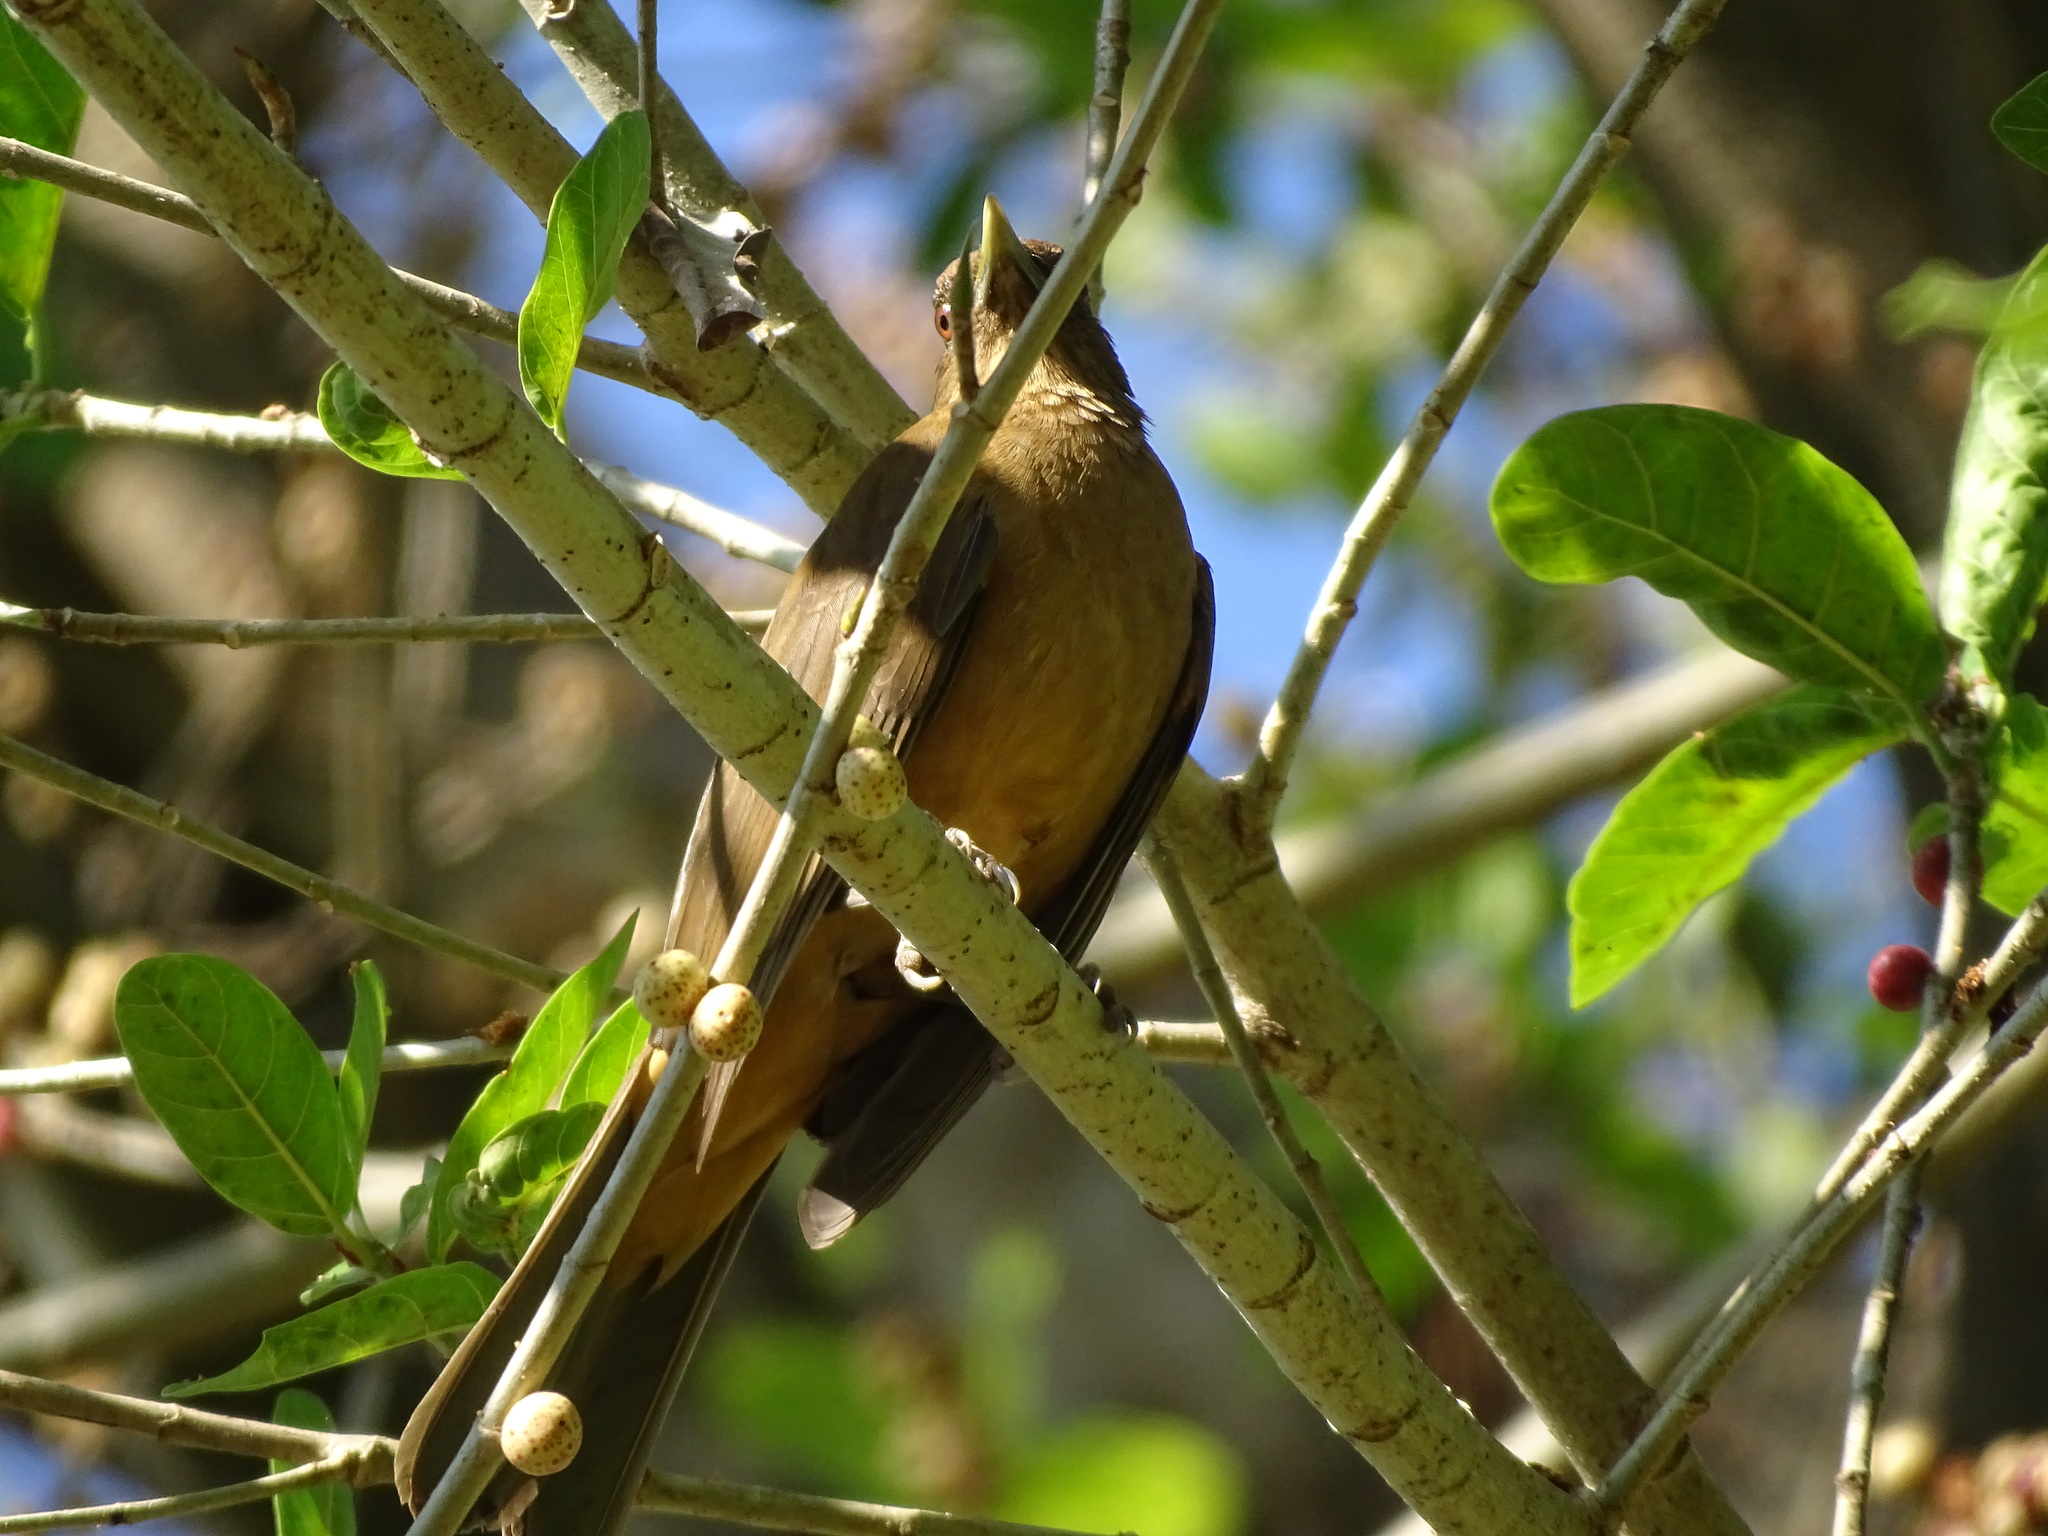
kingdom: Animalia
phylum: Chordata
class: Aves
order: Passeriformes
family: Turdidae
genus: Turdus
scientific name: Turdus grayi
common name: Clay-colored thrush
